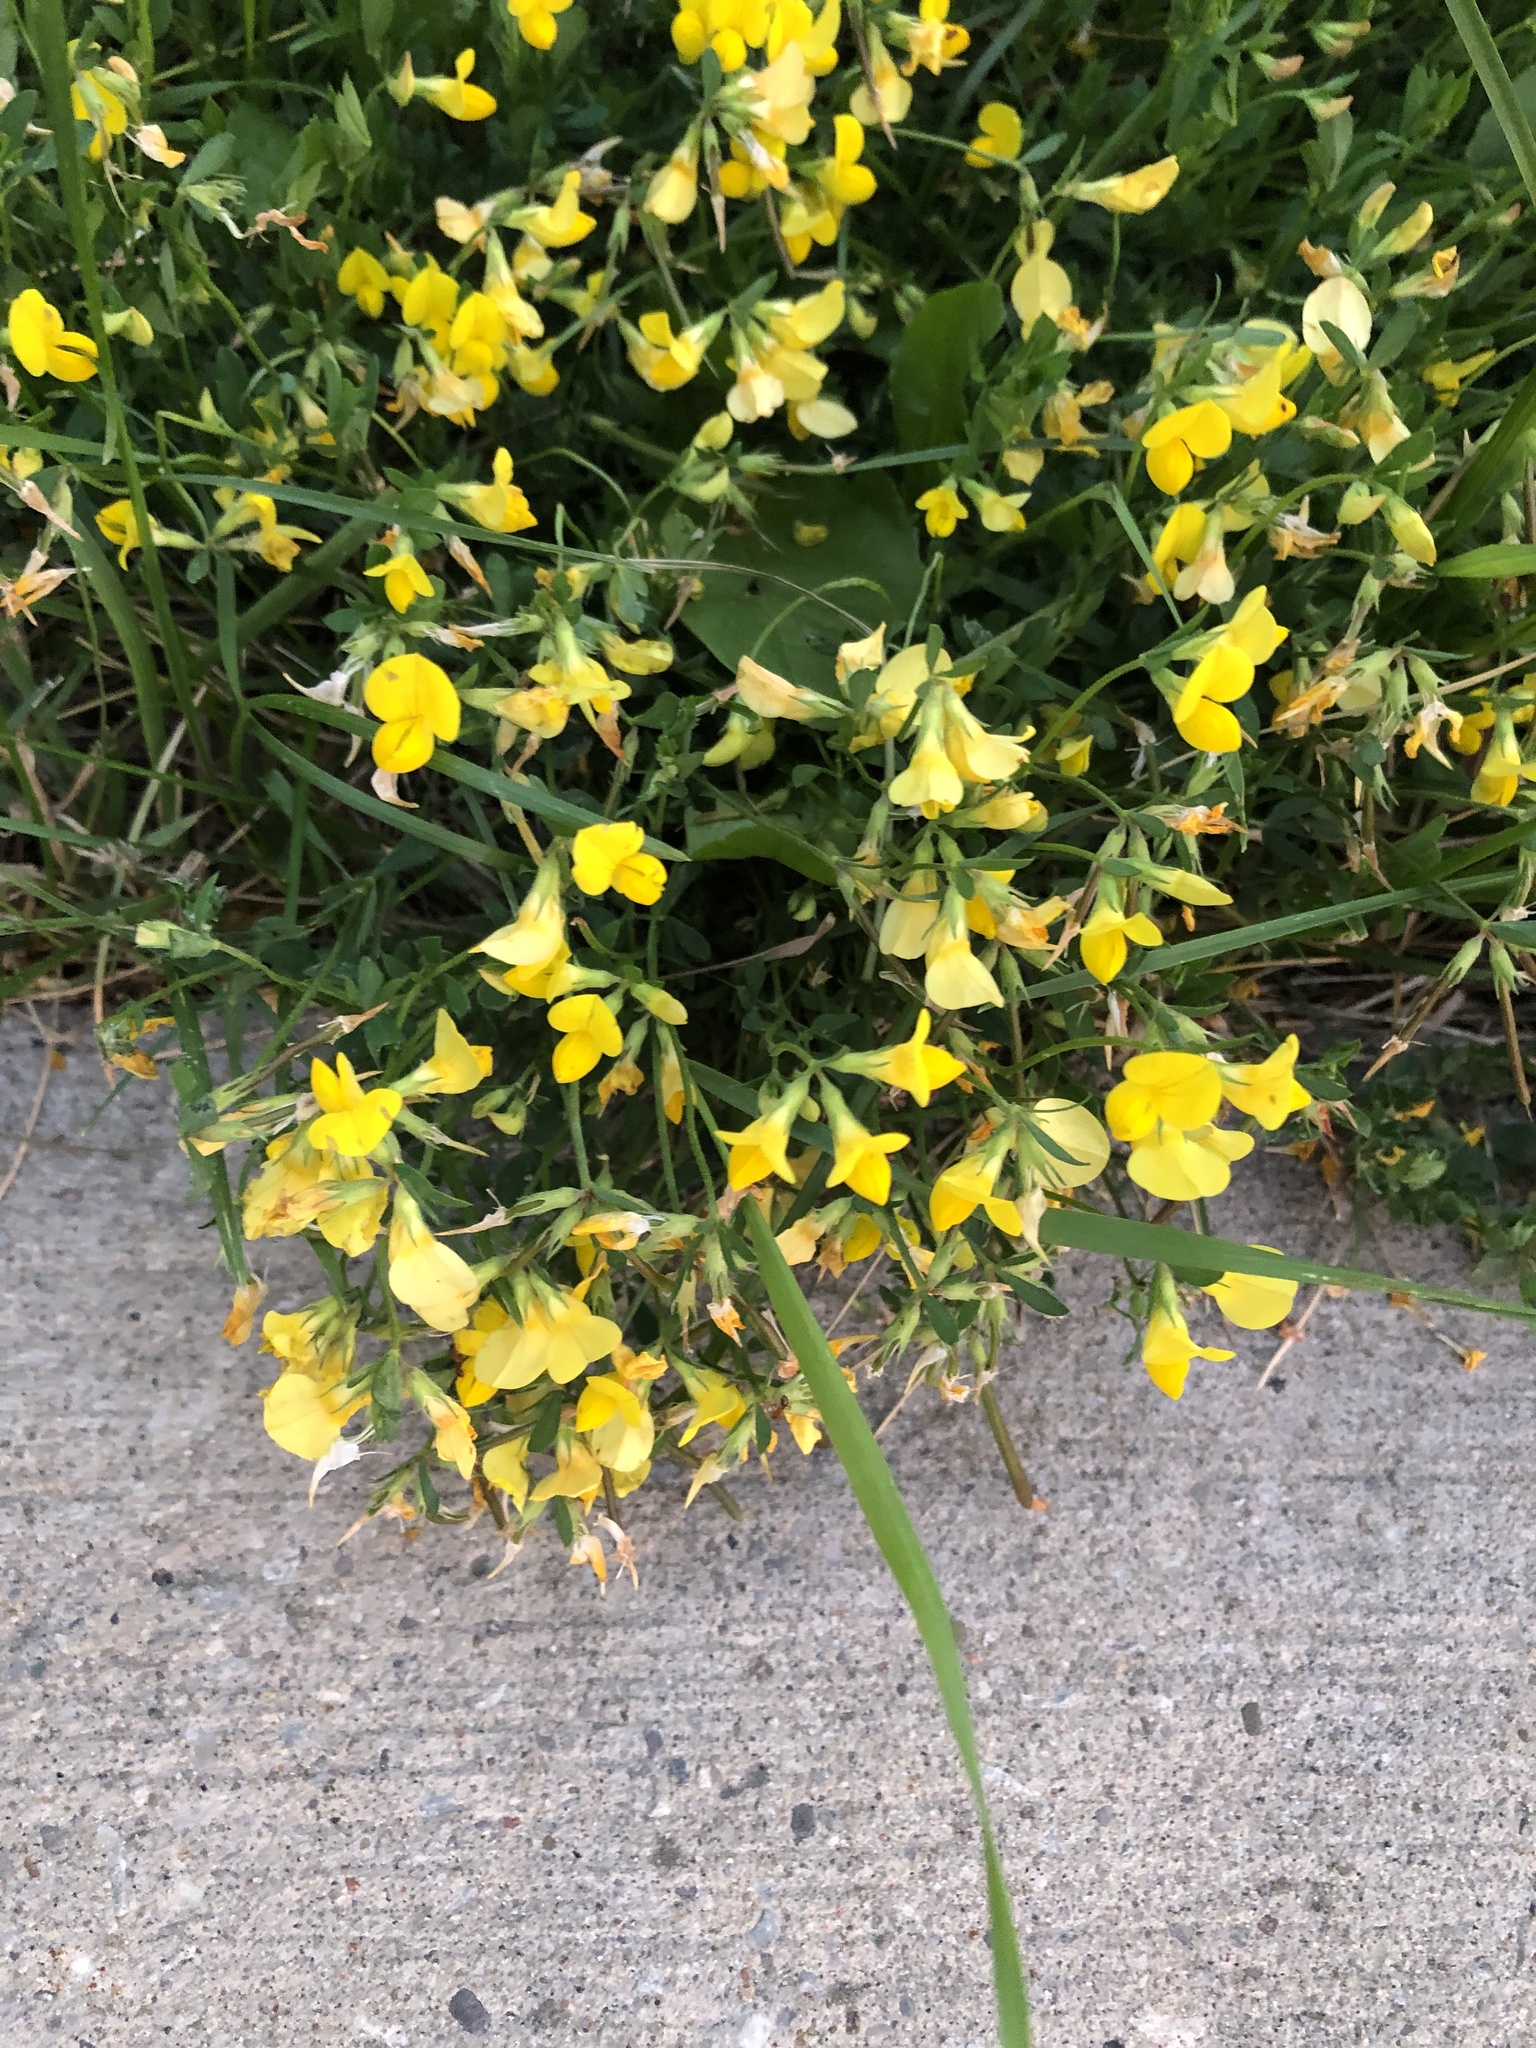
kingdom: Plantae
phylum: Tracheophyta
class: Magnoliopsida
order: Fabales
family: Fabaceae
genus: Lotus
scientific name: Lotus corniculatus
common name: Common bird's-foot-trefoil
